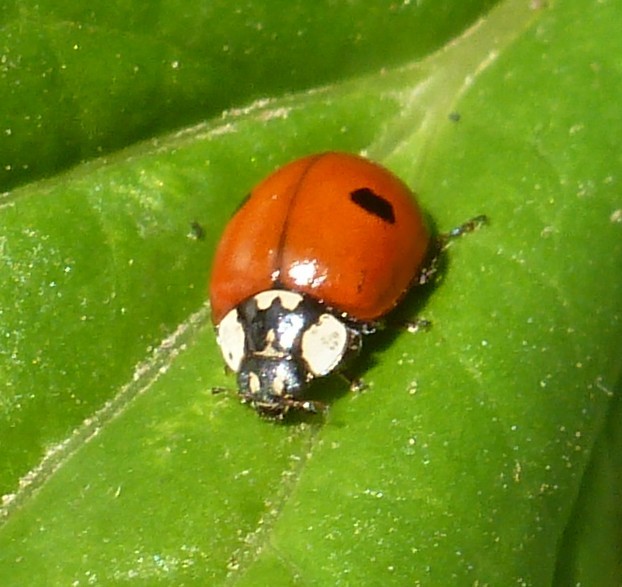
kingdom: Animalia
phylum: Arthropoda
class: Insecta
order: Coleoptera
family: Coccinellidae
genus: Adalia
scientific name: Adalia bipunctata
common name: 2-spot ladybird
